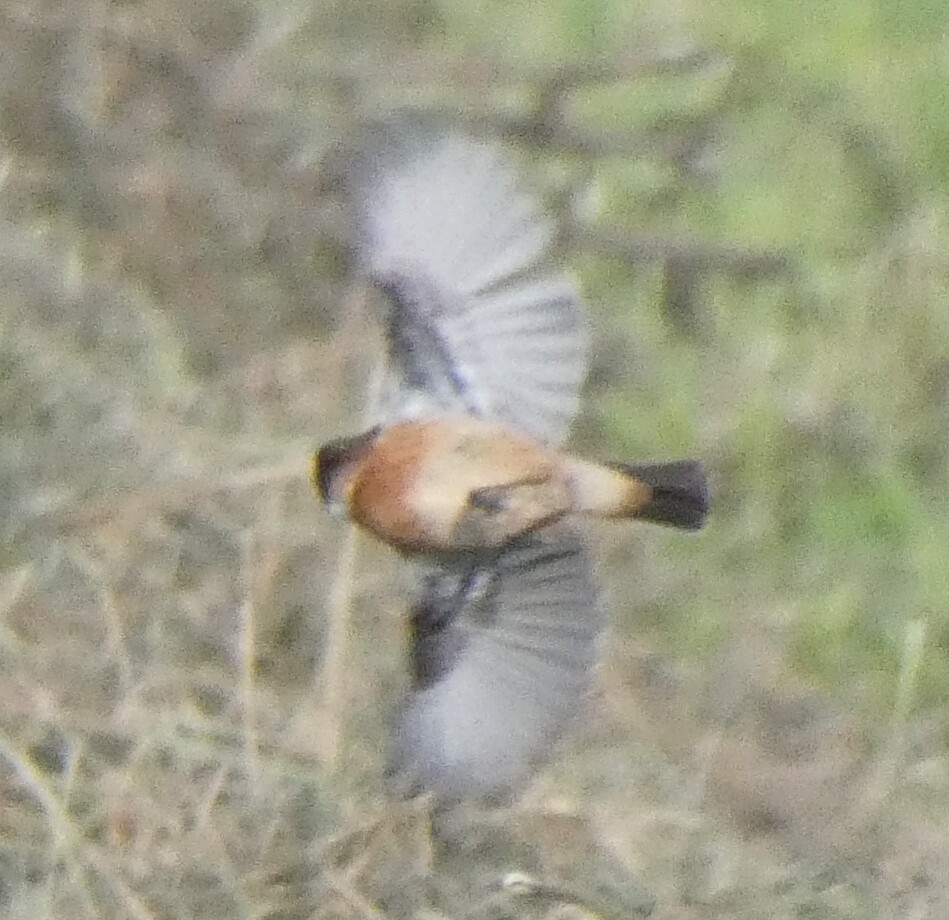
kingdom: Animalia
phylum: Chordata
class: Aves
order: Passeriformes
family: Muscicapidae
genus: Saxicola
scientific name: Saxicola rubicola
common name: European stonechat
